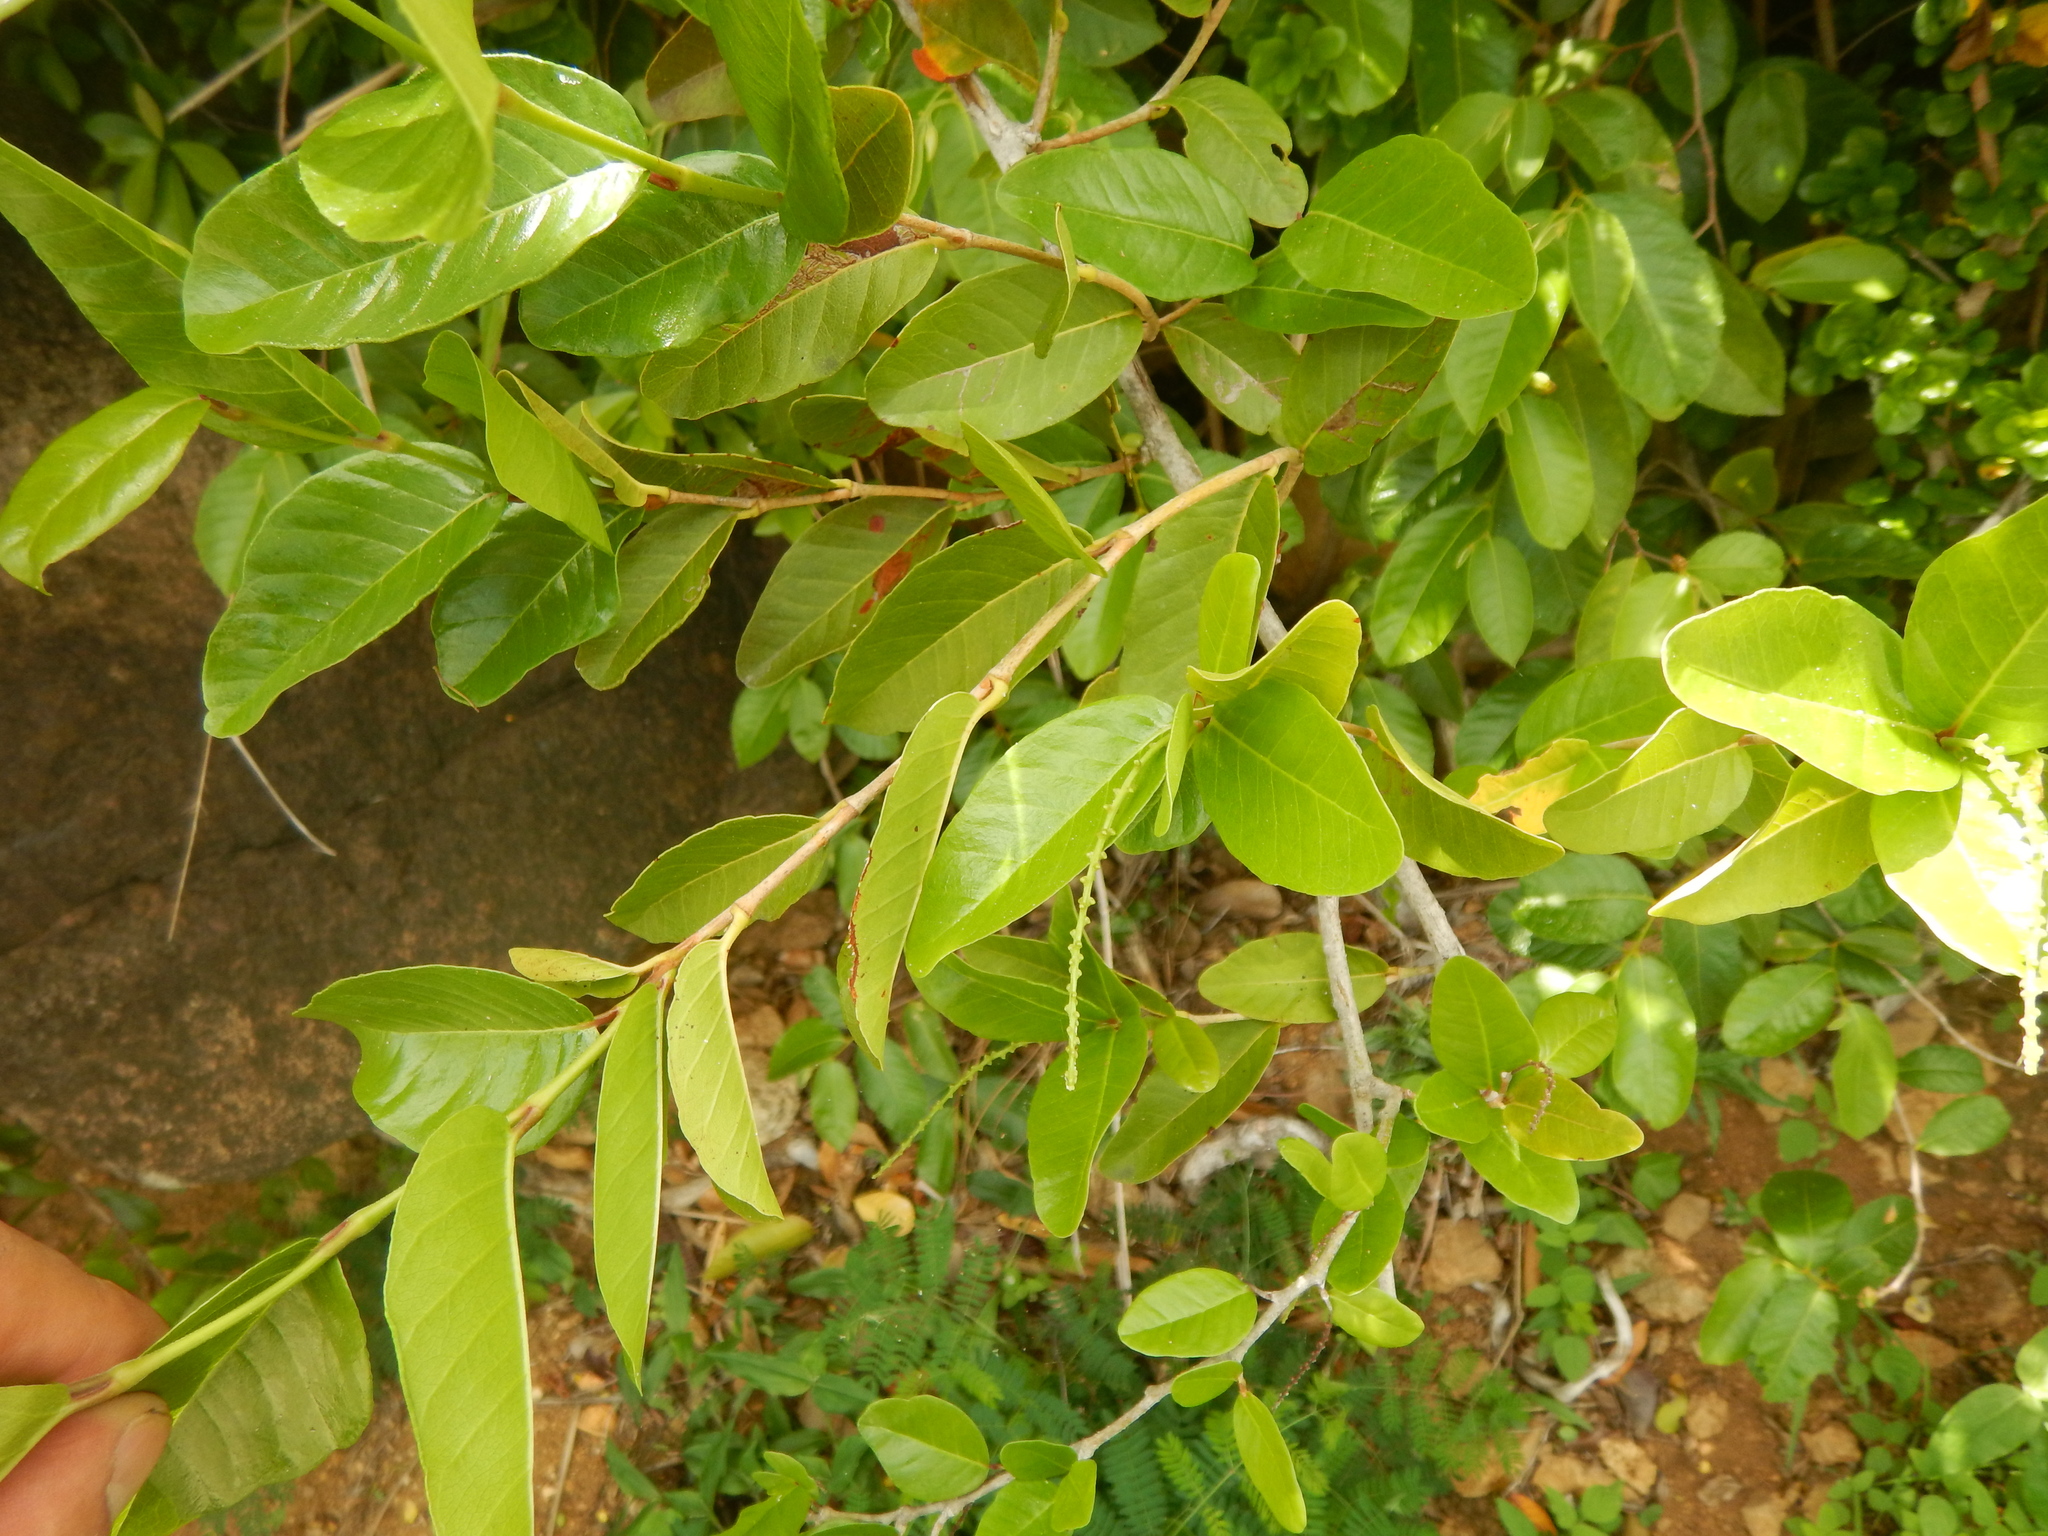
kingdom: Plantae
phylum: Tracheophyta
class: Magnoliopsida
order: Caryophyllales
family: Polygonaceae
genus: Coccoloba
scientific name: Coccoloba microstachya
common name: Puckout
